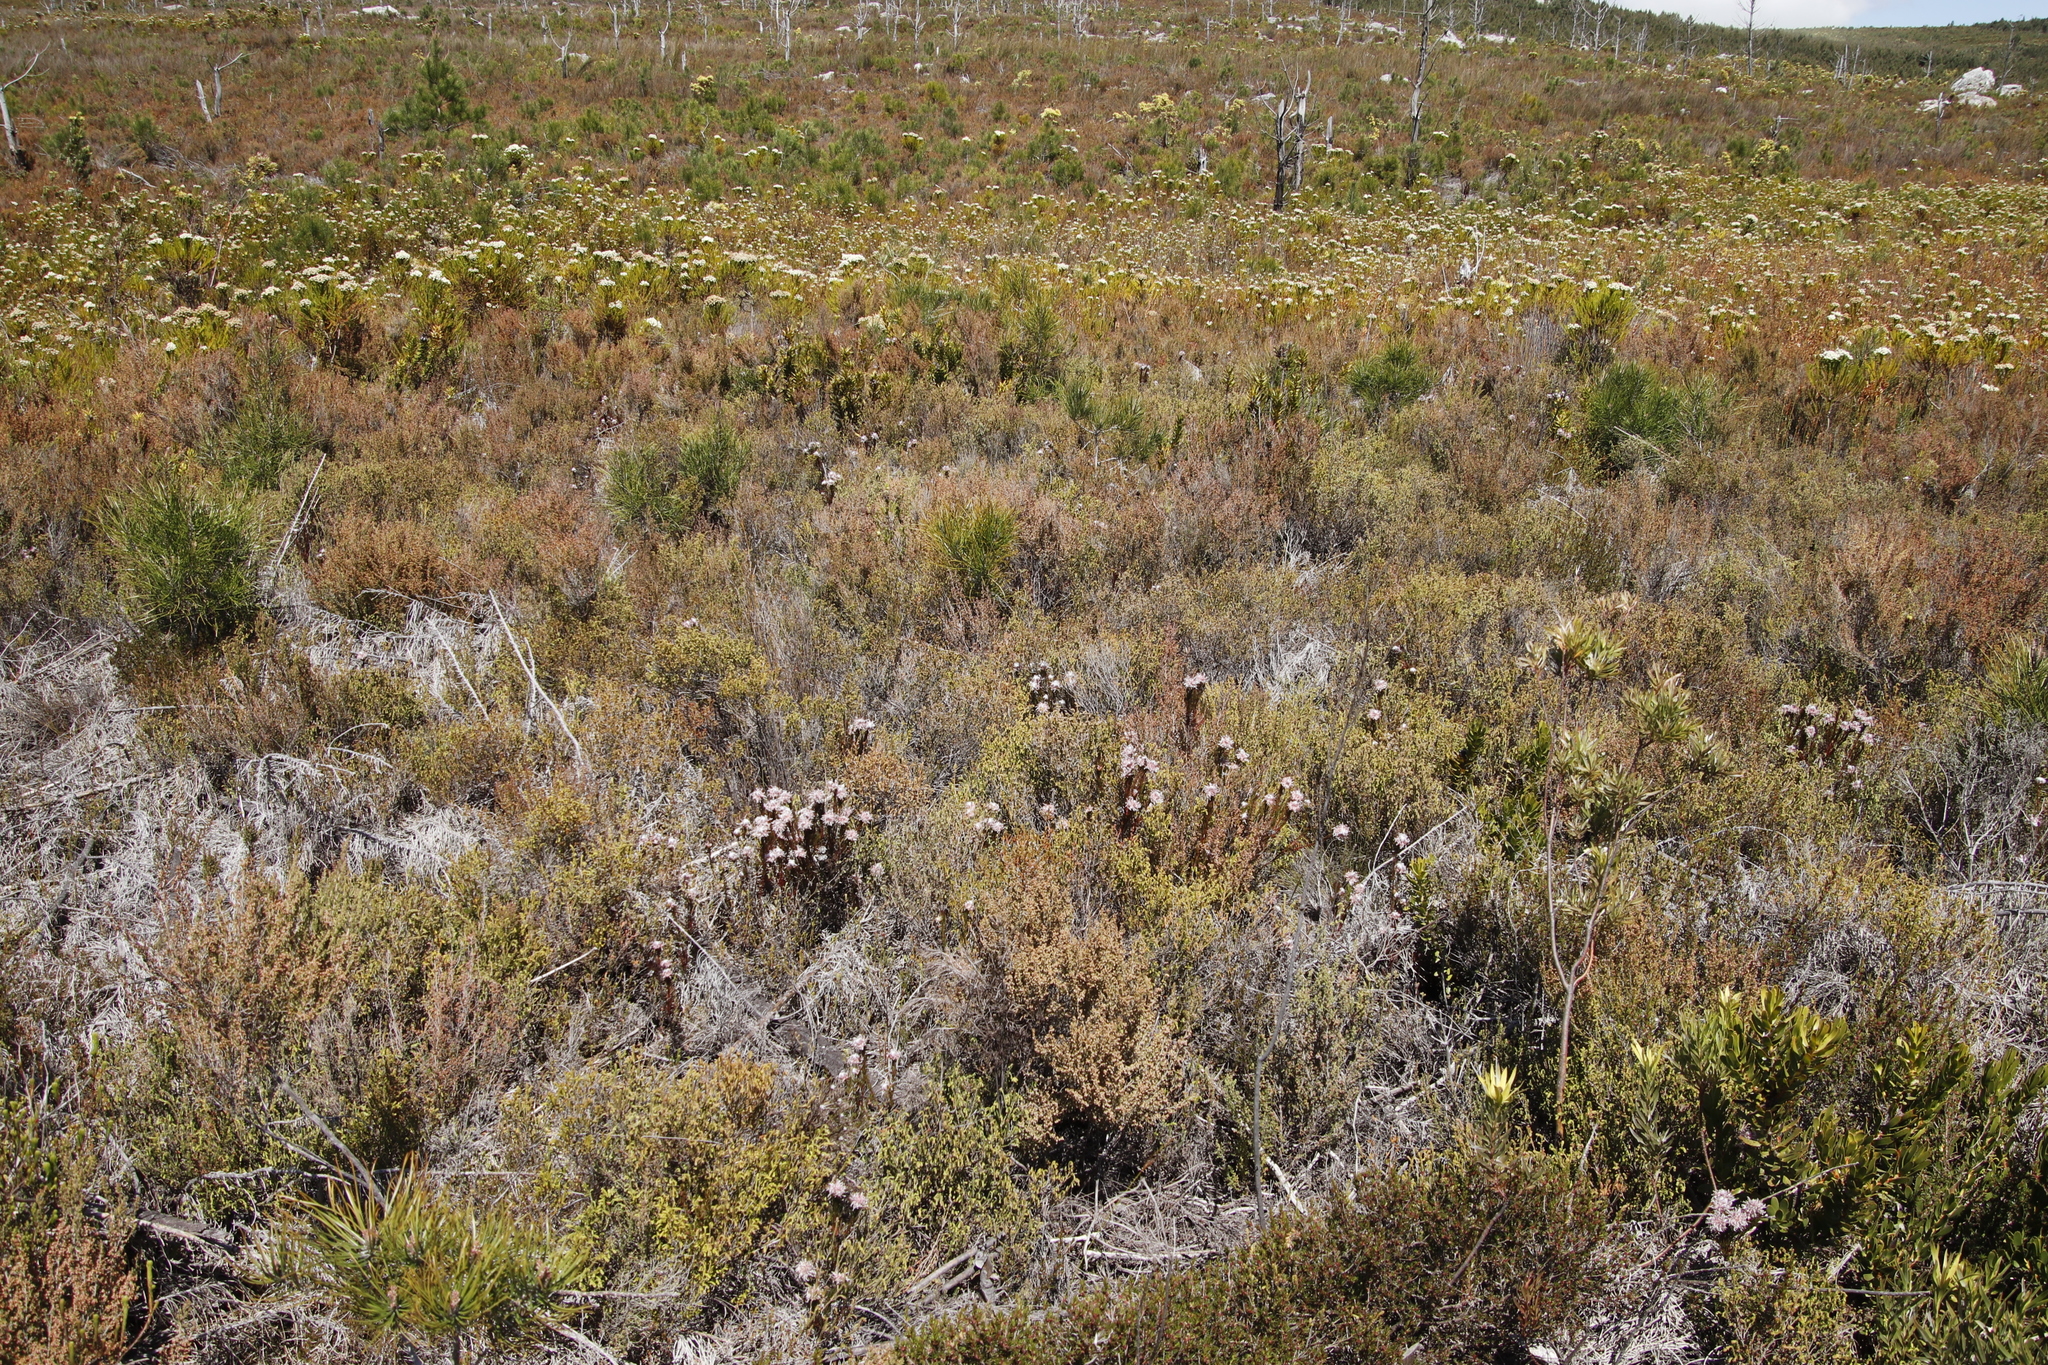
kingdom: Plantae
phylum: Tracheophyta
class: Magnoliopsida
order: Proteales
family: Proteaceae
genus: Serruria
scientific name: Serruria rostellaris
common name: Remote spiderhead
